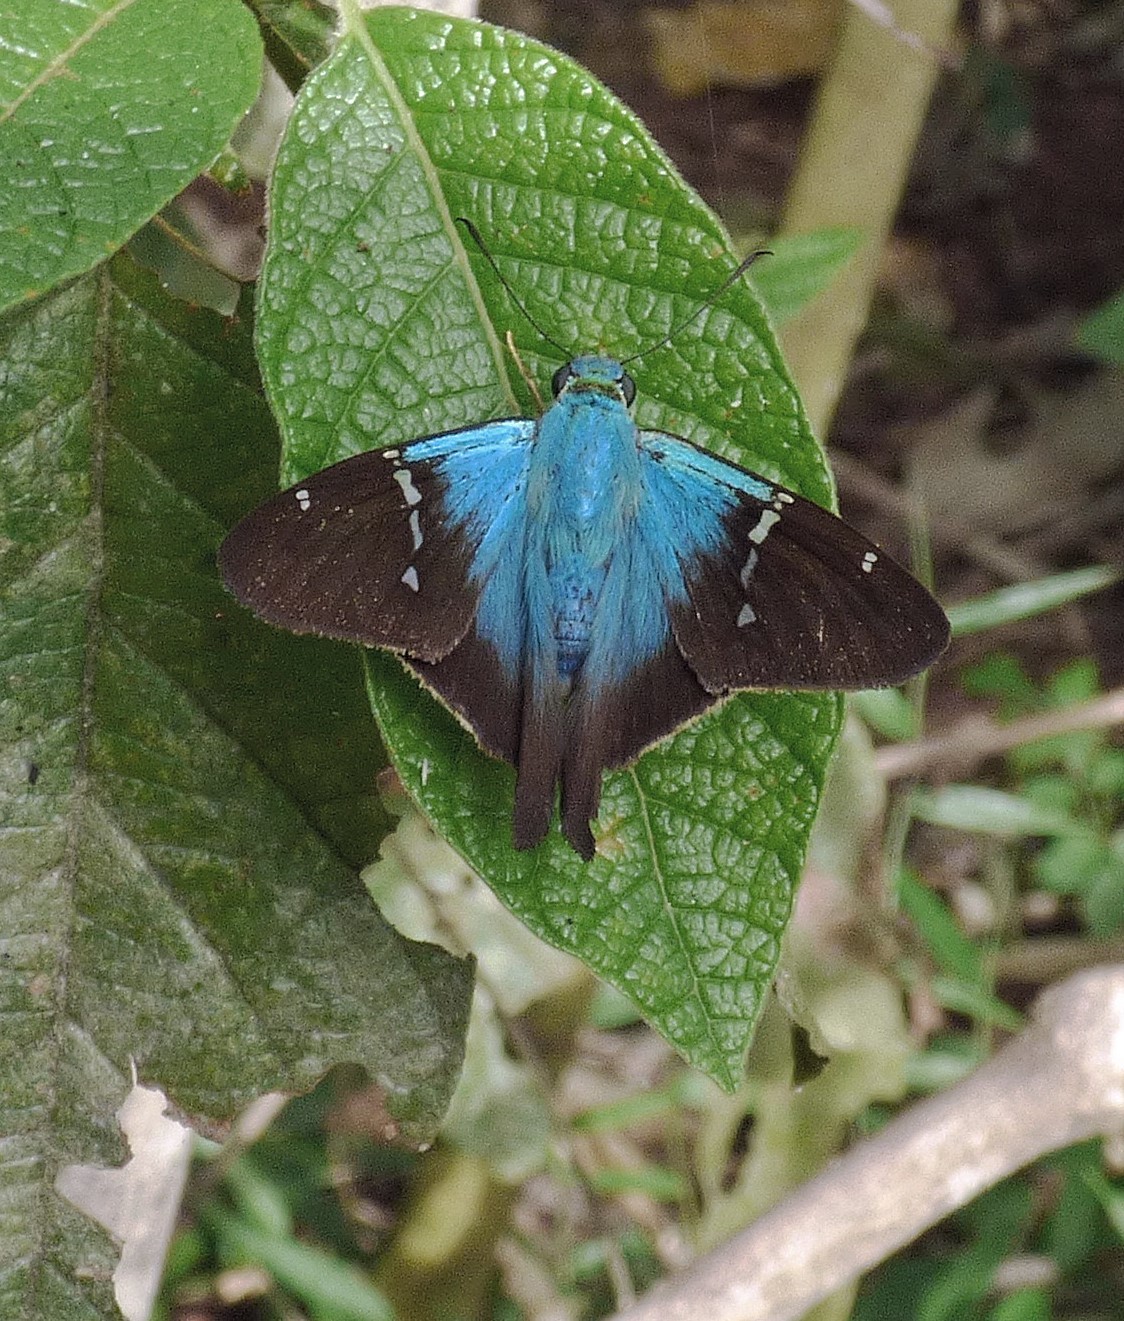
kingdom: Animalia
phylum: Arthropoda
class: Insecta
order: Lepidoptera
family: Hesperiidae
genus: Aguna
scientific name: Aguna
